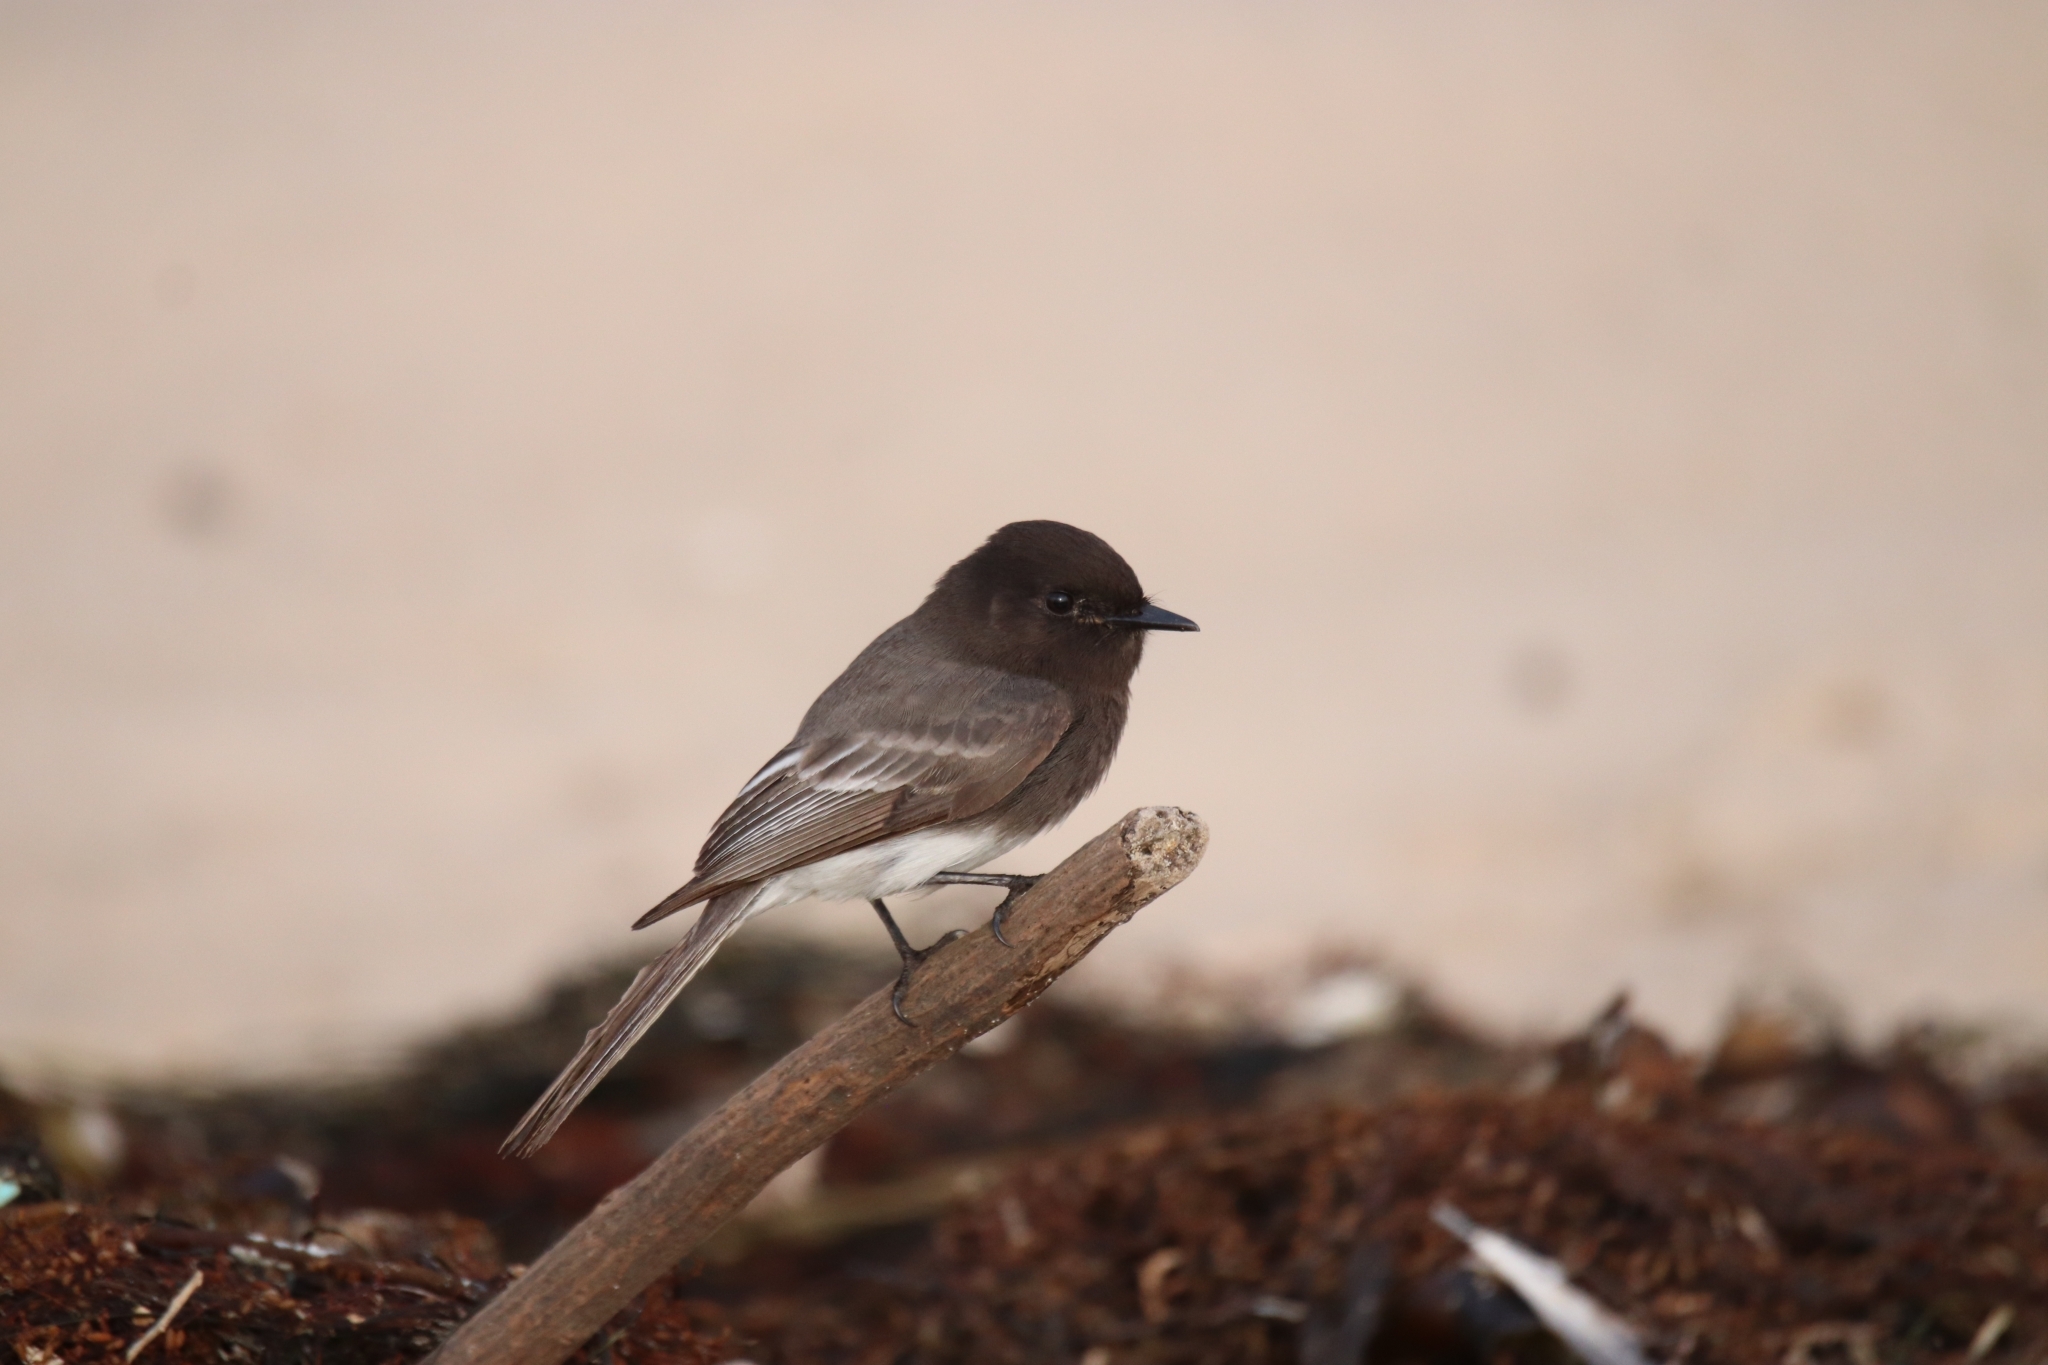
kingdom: Animalia
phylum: Chordata
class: Aves
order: Passeriformes
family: Tyrannidae
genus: Sayornis
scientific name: Sayornis nigricans
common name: Black phoebe
